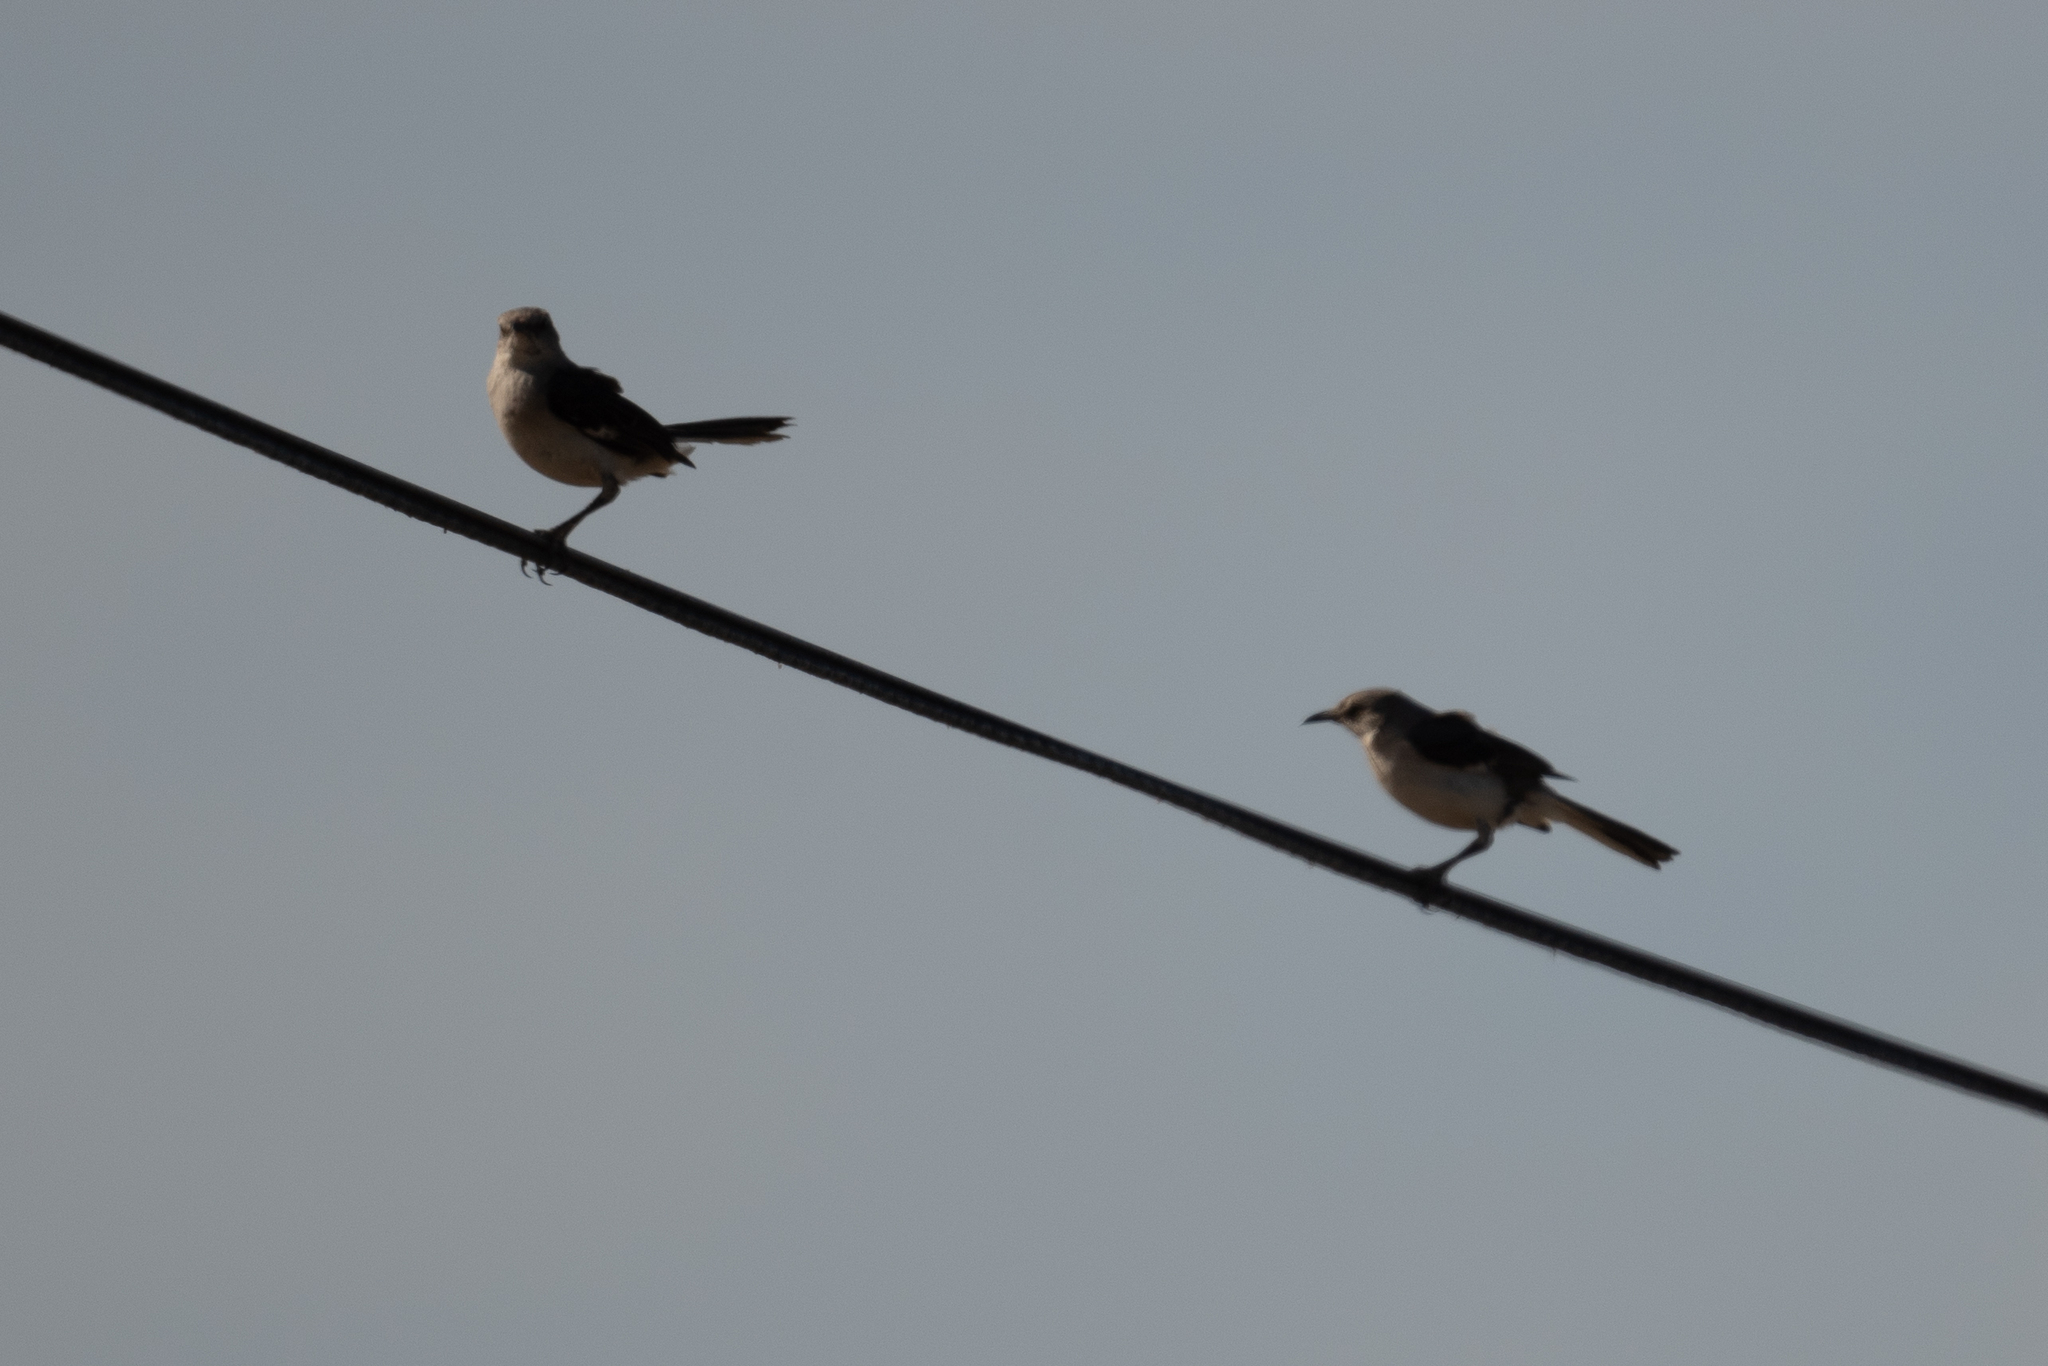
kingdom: Animalia
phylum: Chordata
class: Aves
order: Passeriformes
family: Mimidae
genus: Mimus
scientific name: Mimus polyglottos
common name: Northern mockingbird
